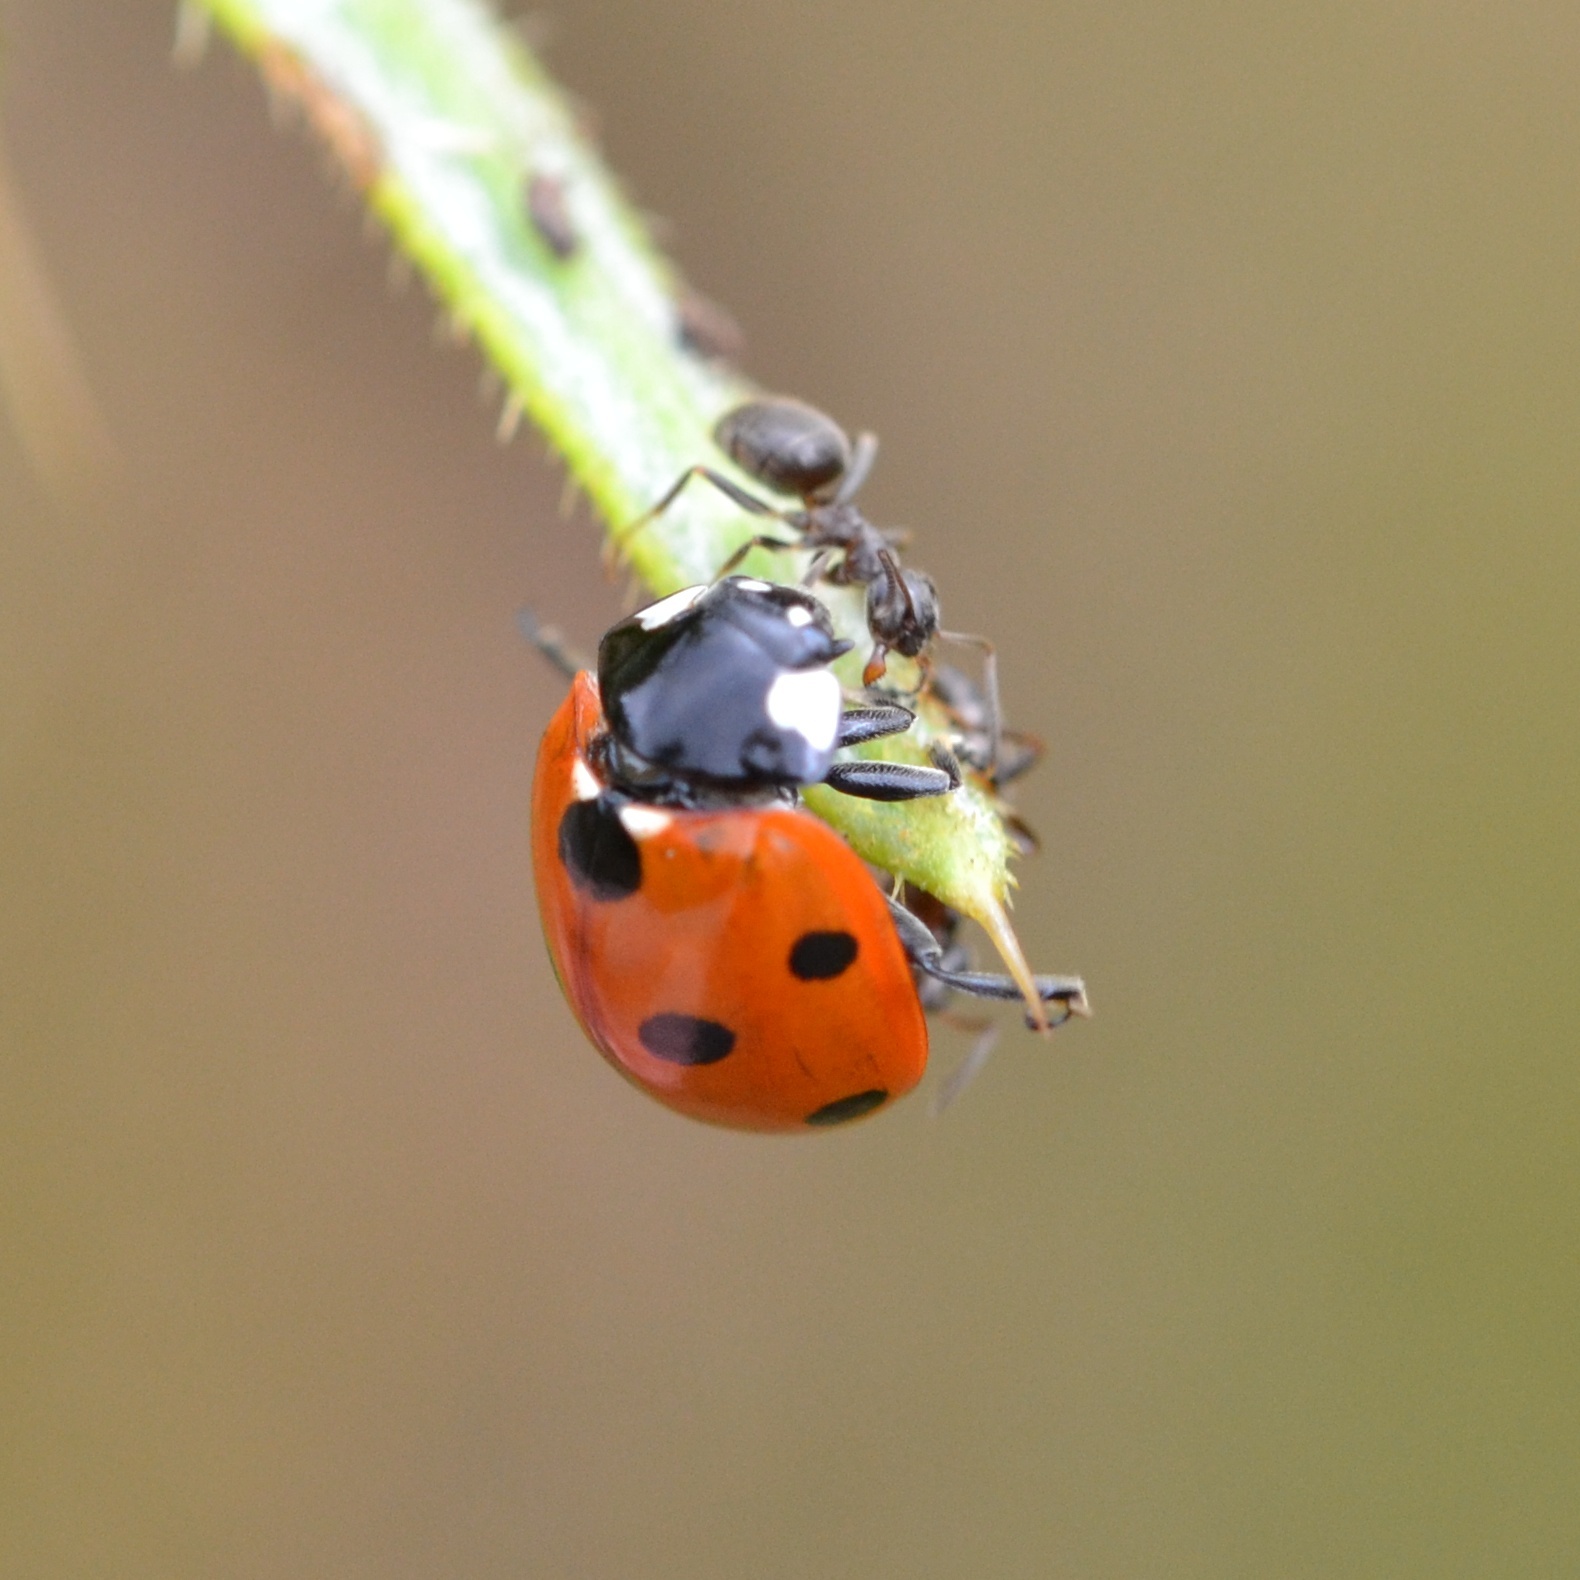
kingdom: Animalia
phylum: Arthropoda
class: Insecta
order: Coleoptera
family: Coccinellidae
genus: Coccinella
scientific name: Coccinella septempunctata
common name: Sevenspotted lady beetle
